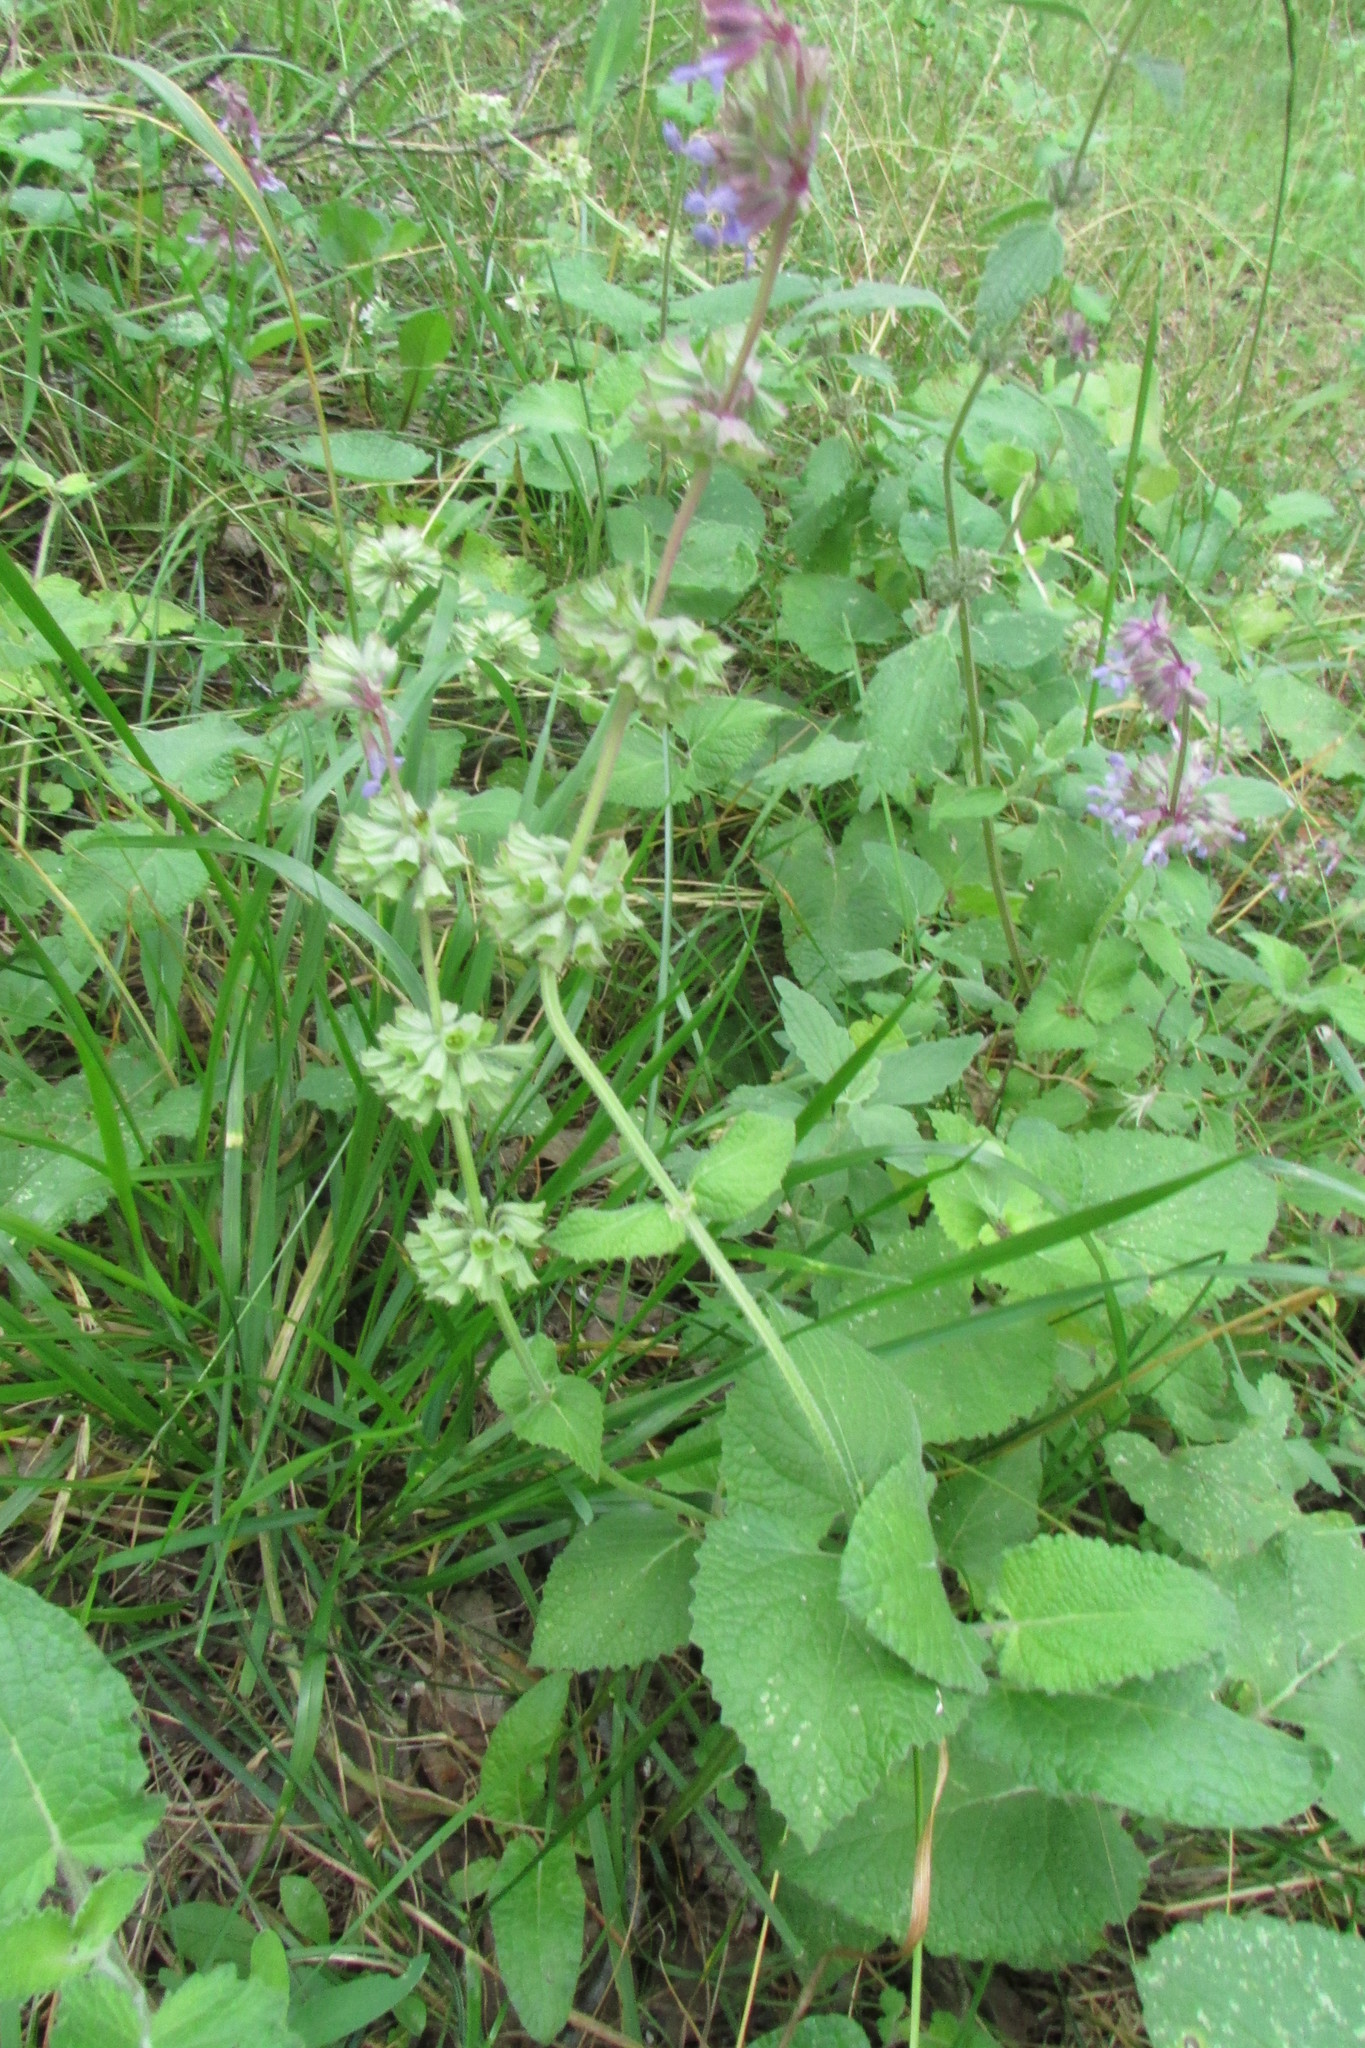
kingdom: Plantae
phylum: Tracheophyta
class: Magnoliopsida
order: Lamiales
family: Lamiaceae
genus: Salvia
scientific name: Salvia verticillata
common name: Whorled clary
